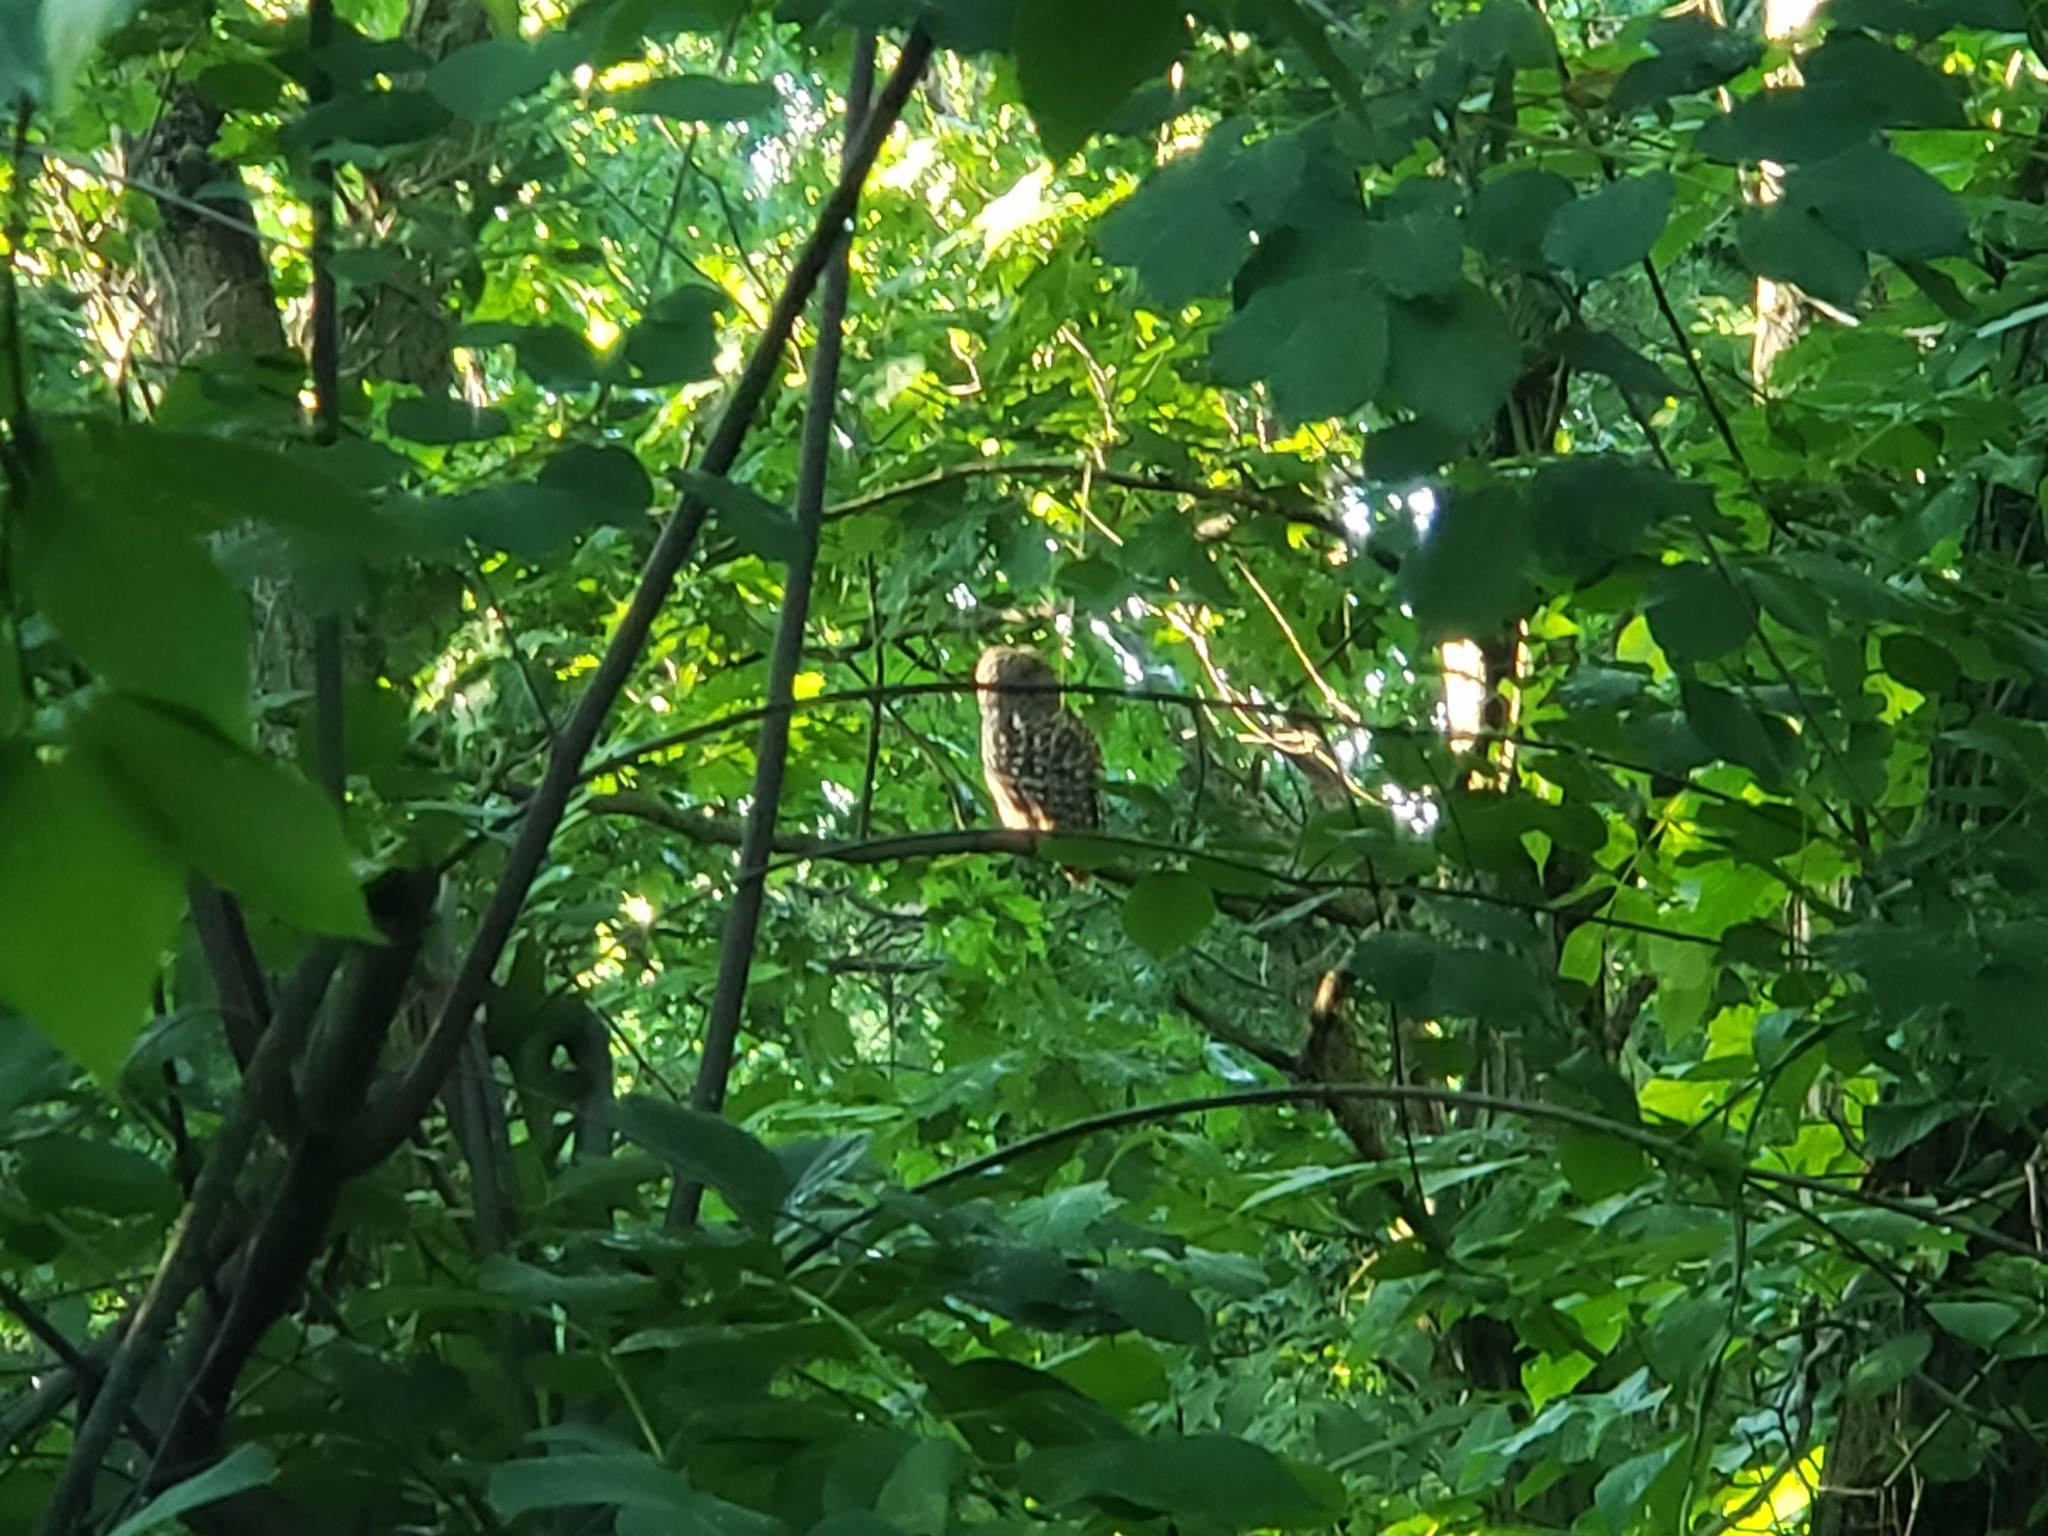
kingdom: Animalia
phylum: Chordata
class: Aves
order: Strigiformes
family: Strigidae
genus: Strix
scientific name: Strix varia
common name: Barred owl
